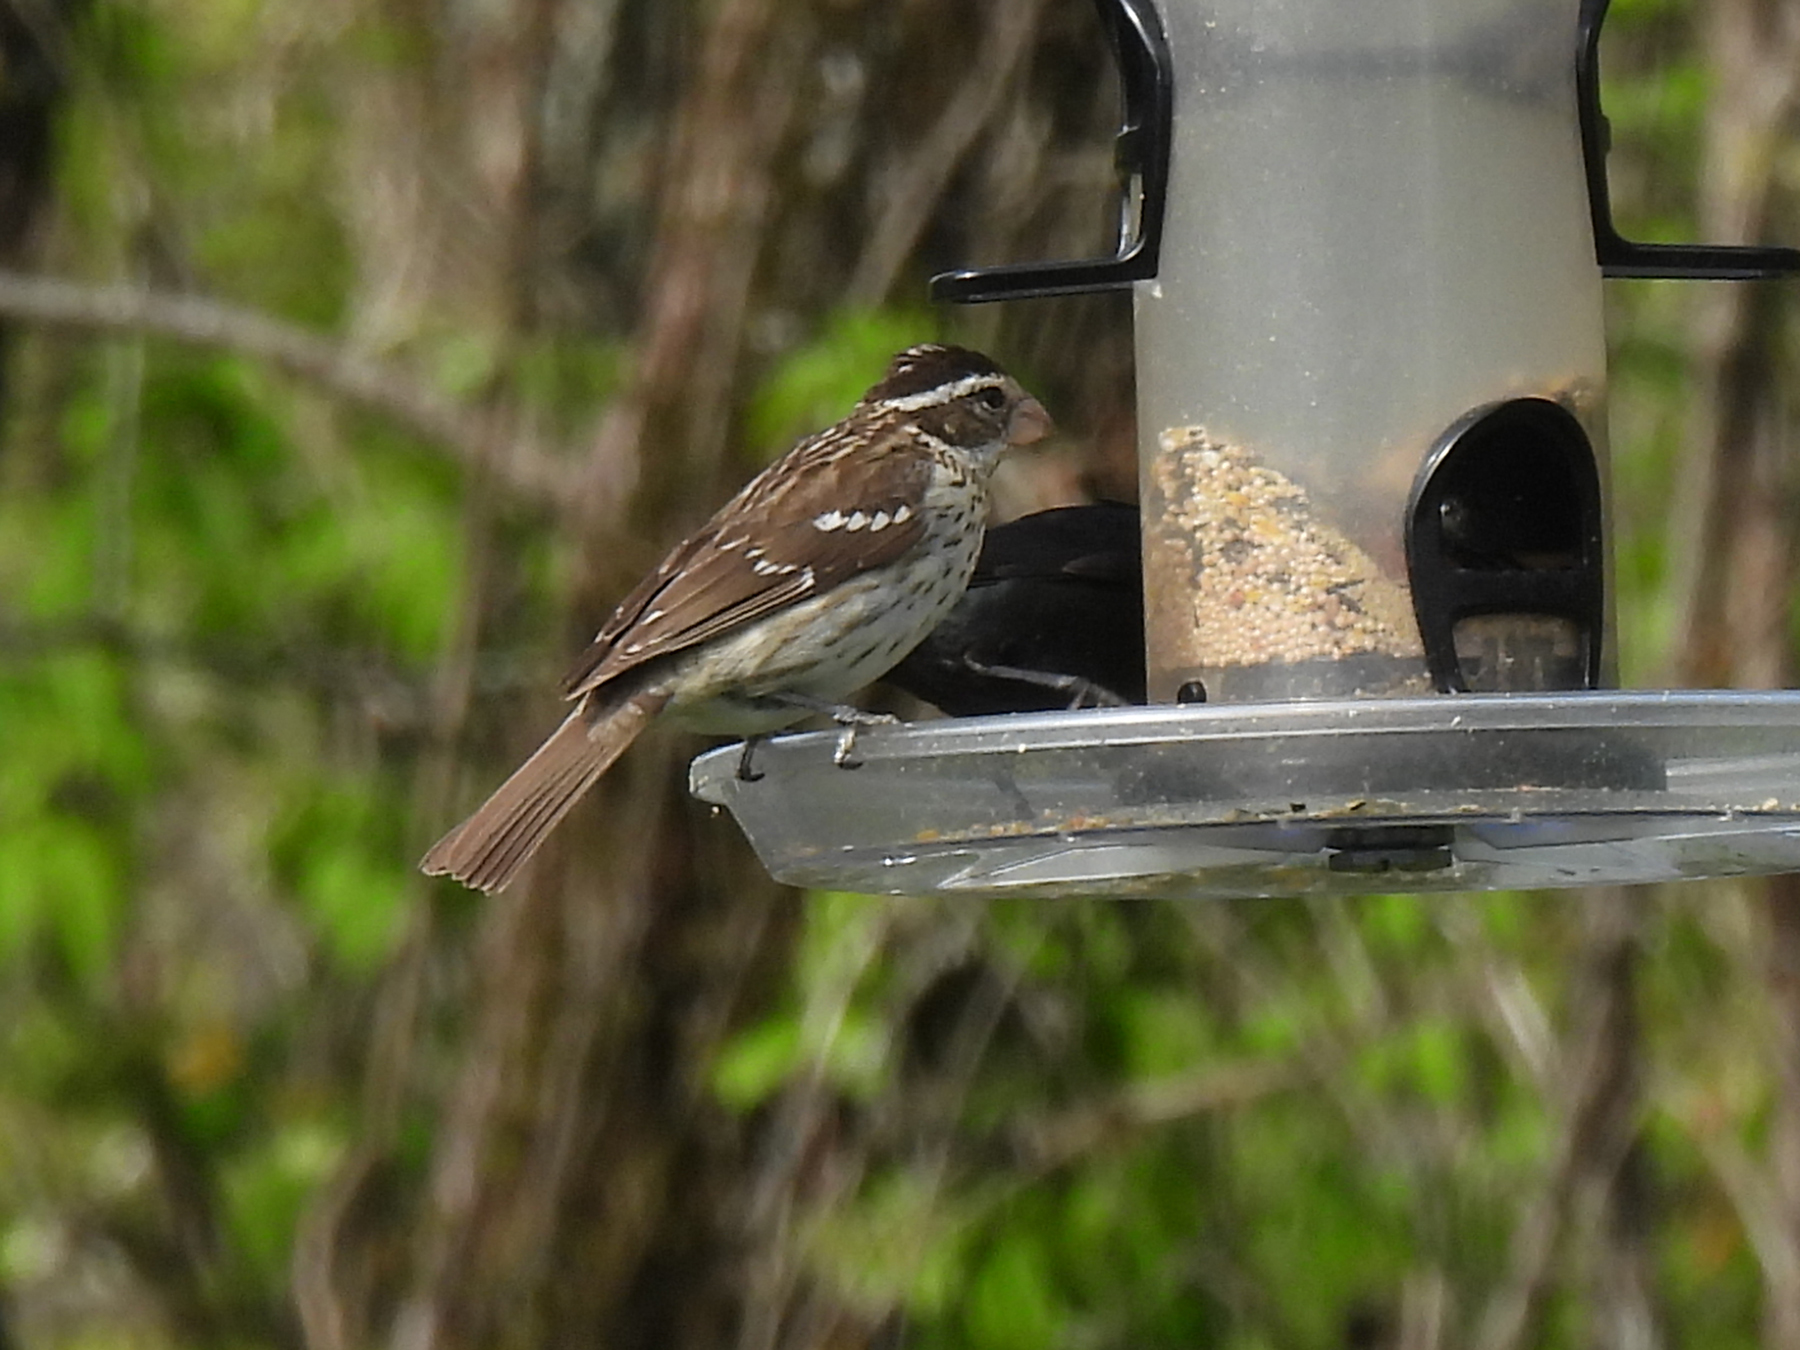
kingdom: Animalia
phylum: Chordata
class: Aves
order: Passeriformes
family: Cardinalidae
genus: Pheucticus
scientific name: Pheucticus ludovicianus
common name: Rose-breasted grosbeak
